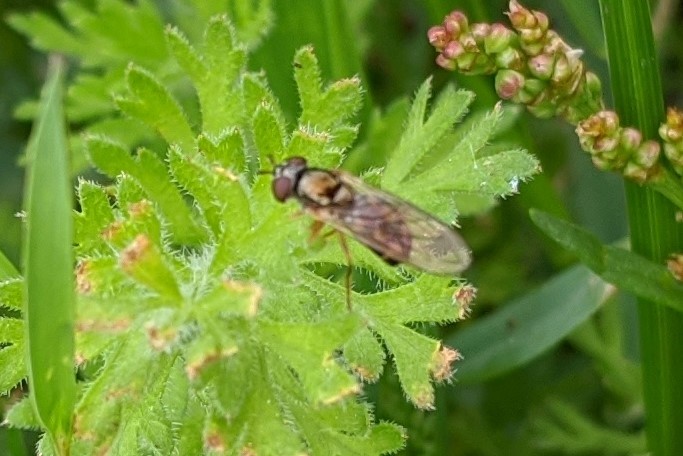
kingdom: Animalia
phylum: Arthropoda
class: Insecta
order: Diptera
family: Syrphidae
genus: Melanostoma
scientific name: Melanostoma mellina
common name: Hover fly
